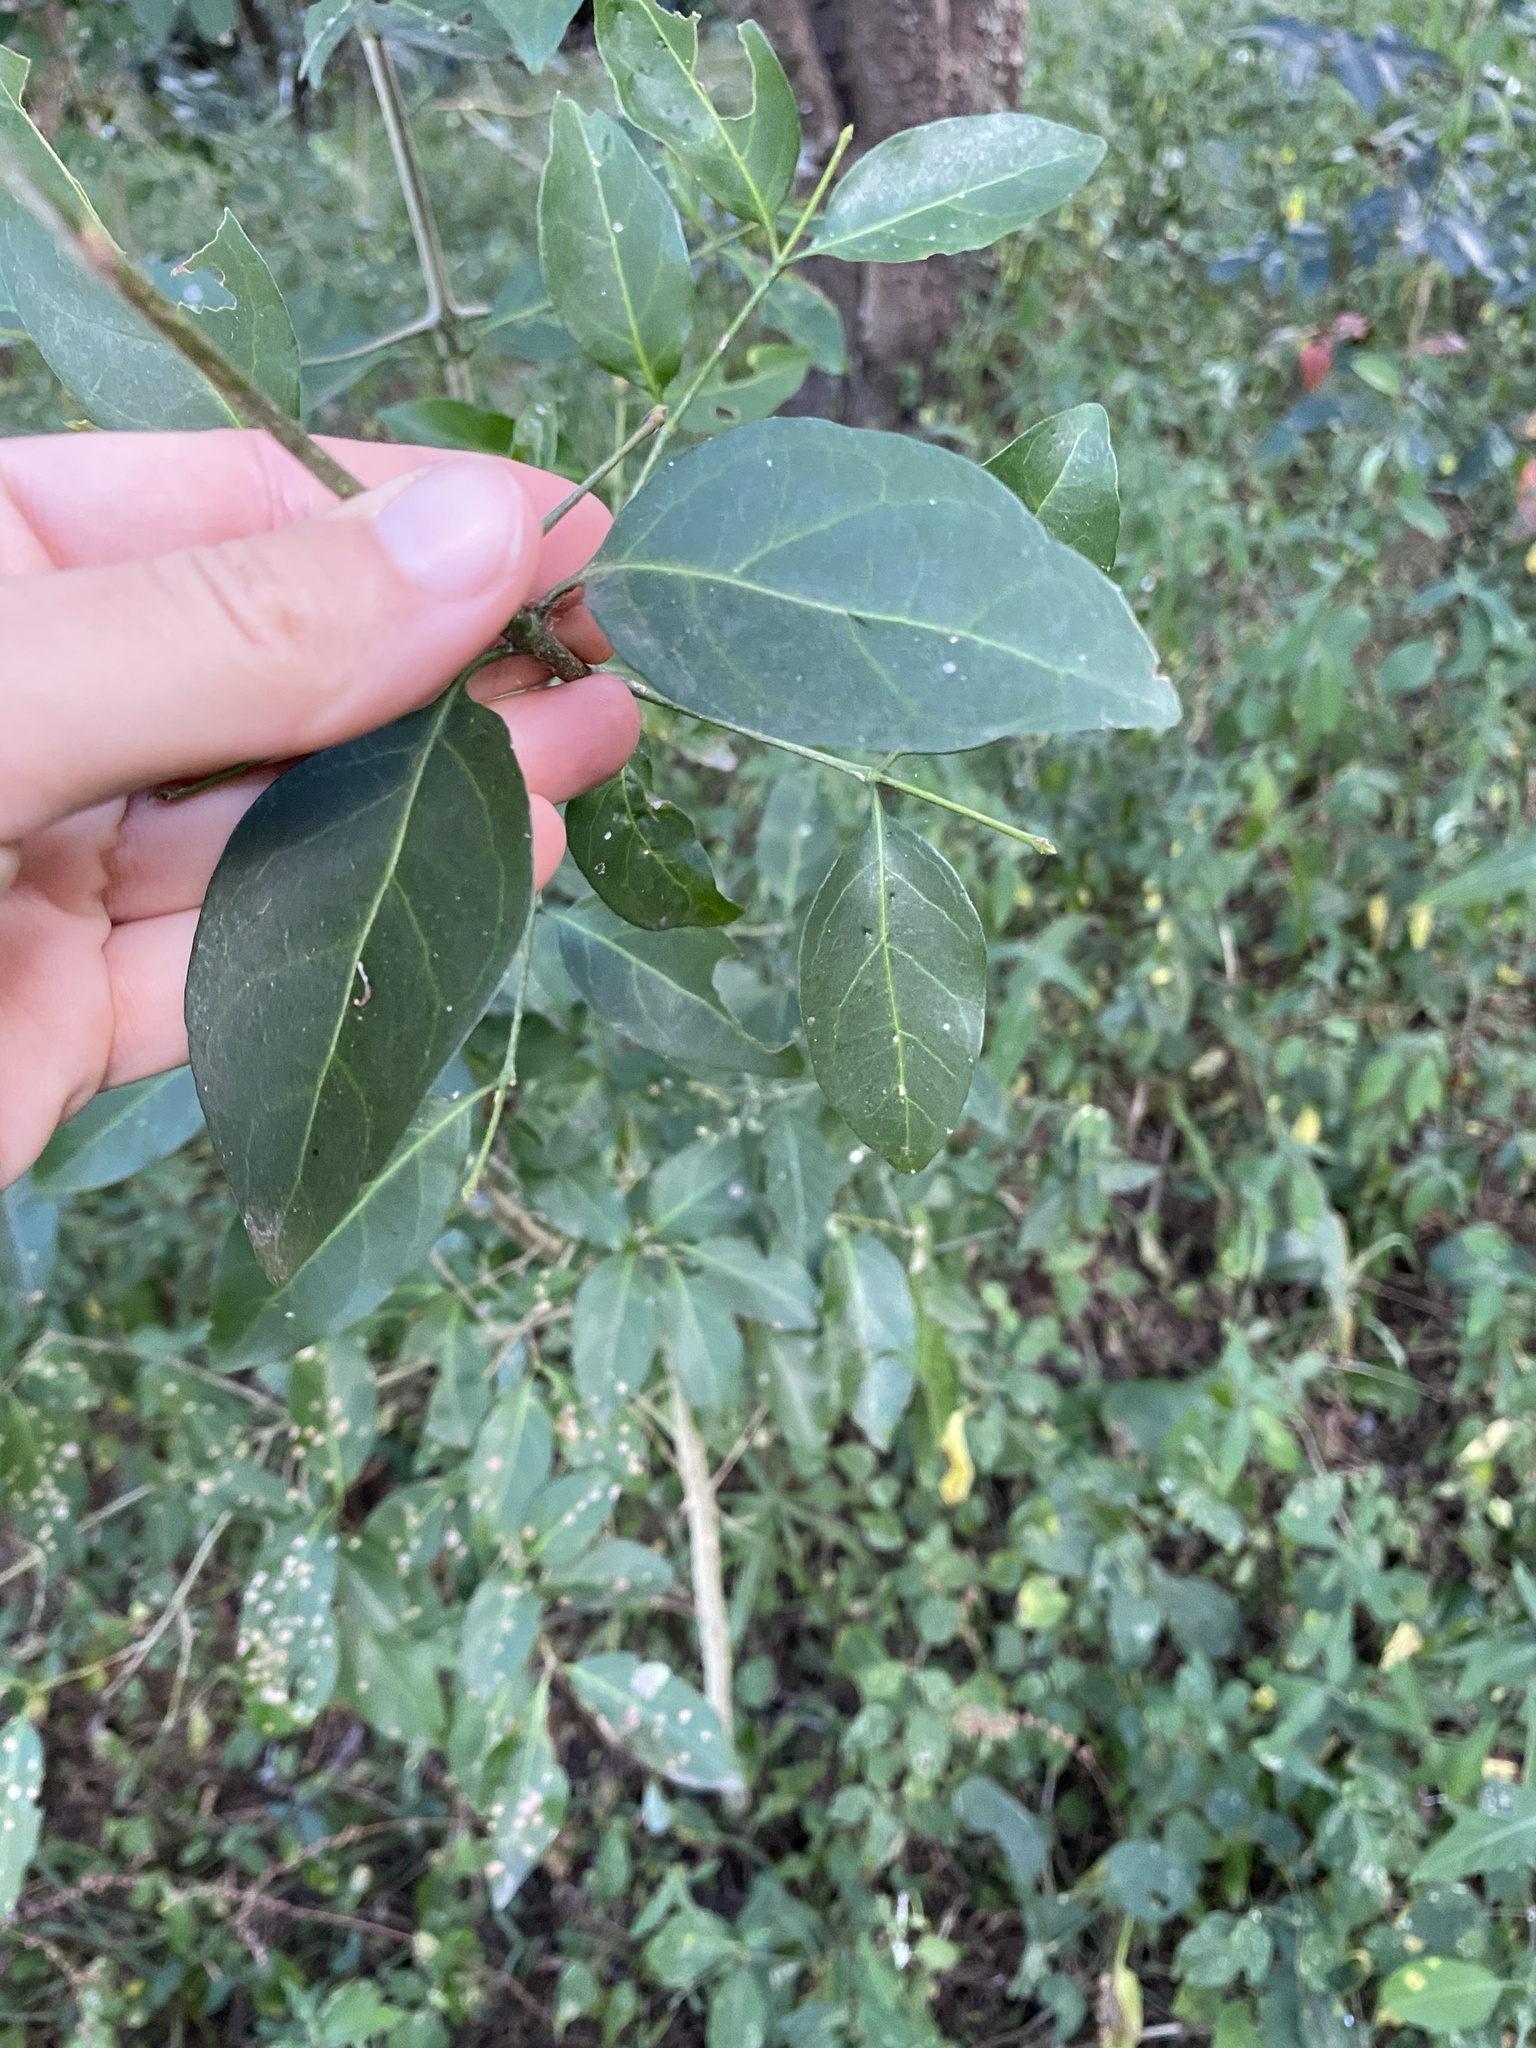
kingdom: Plantae
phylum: Tracheophyta
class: Magnoliopsida
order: Gentianales
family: Rubiaceae
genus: Canthium
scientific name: Canthium inerme
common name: Unarmed turkey-berry
